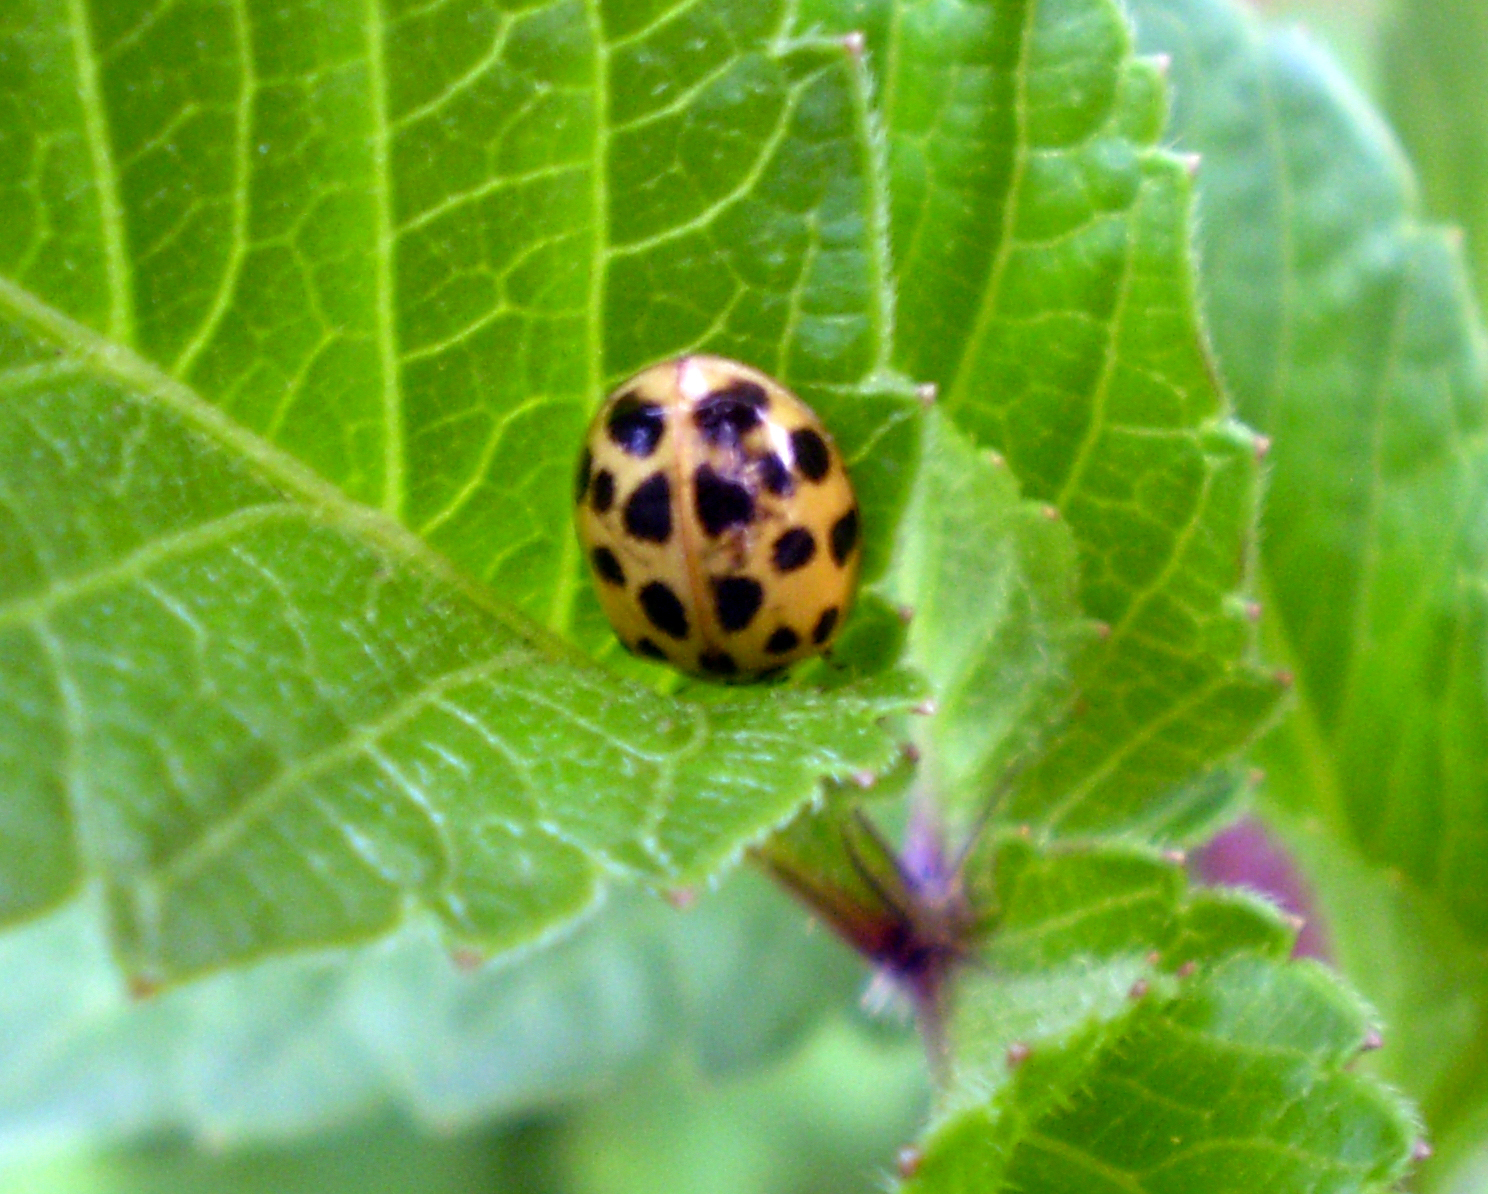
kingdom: Animalia
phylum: Arthropoda
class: Insecta
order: Coleoptera
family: Coccinellidae
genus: Harmonia
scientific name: Harmonia axyridis
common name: Harlequin ladybird
